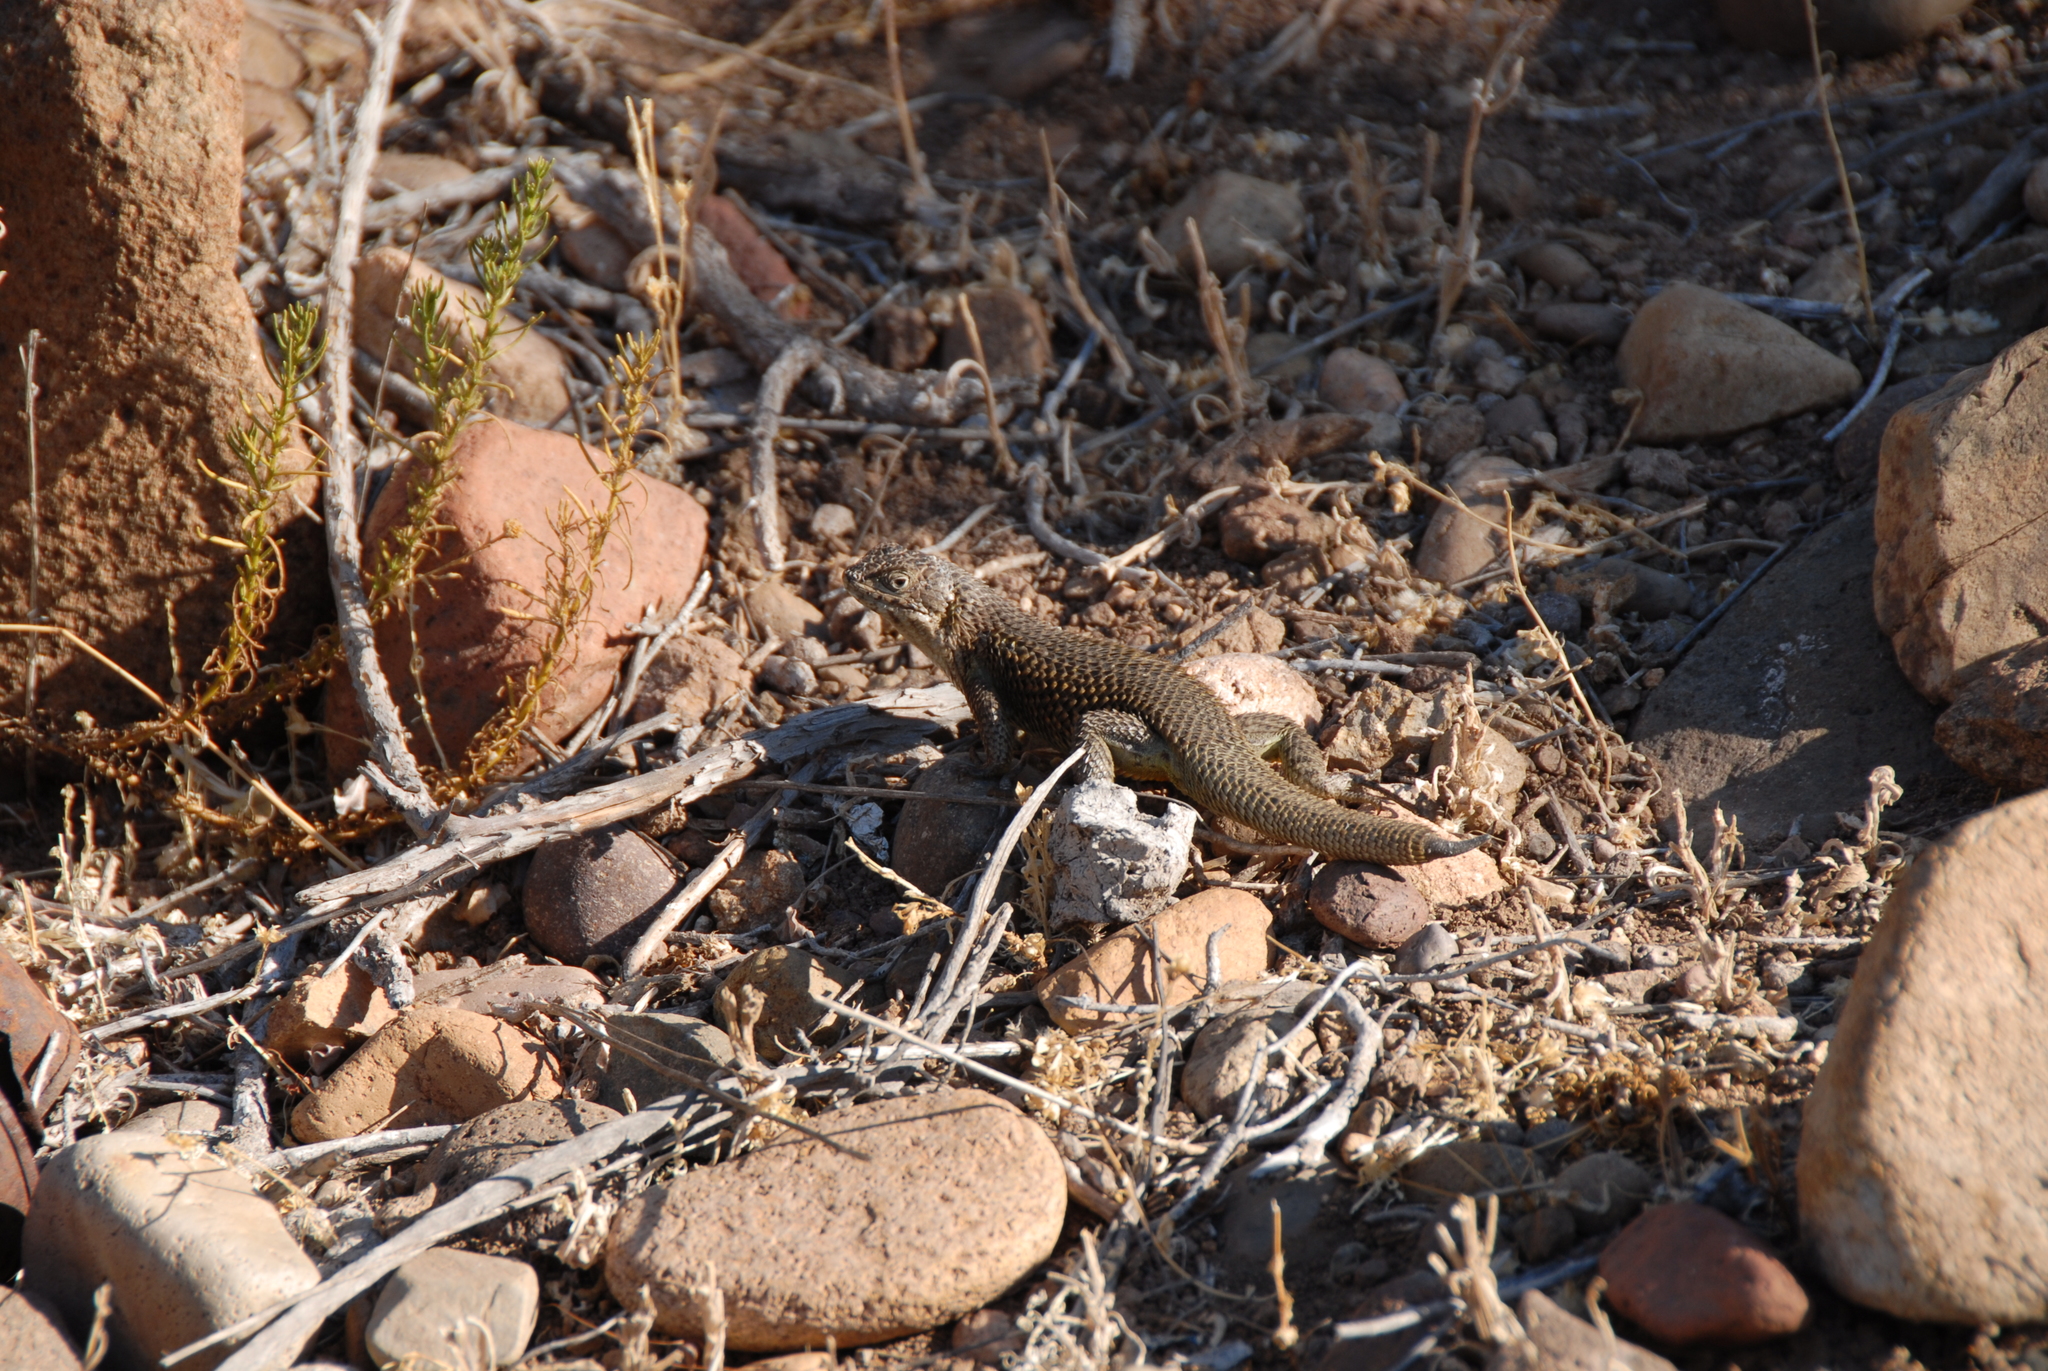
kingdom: Animalia
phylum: Chordata
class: Squamata
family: Liolaemidae
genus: Liolaemus
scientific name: Liolaemus nitidus
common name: Shining tree iguana
